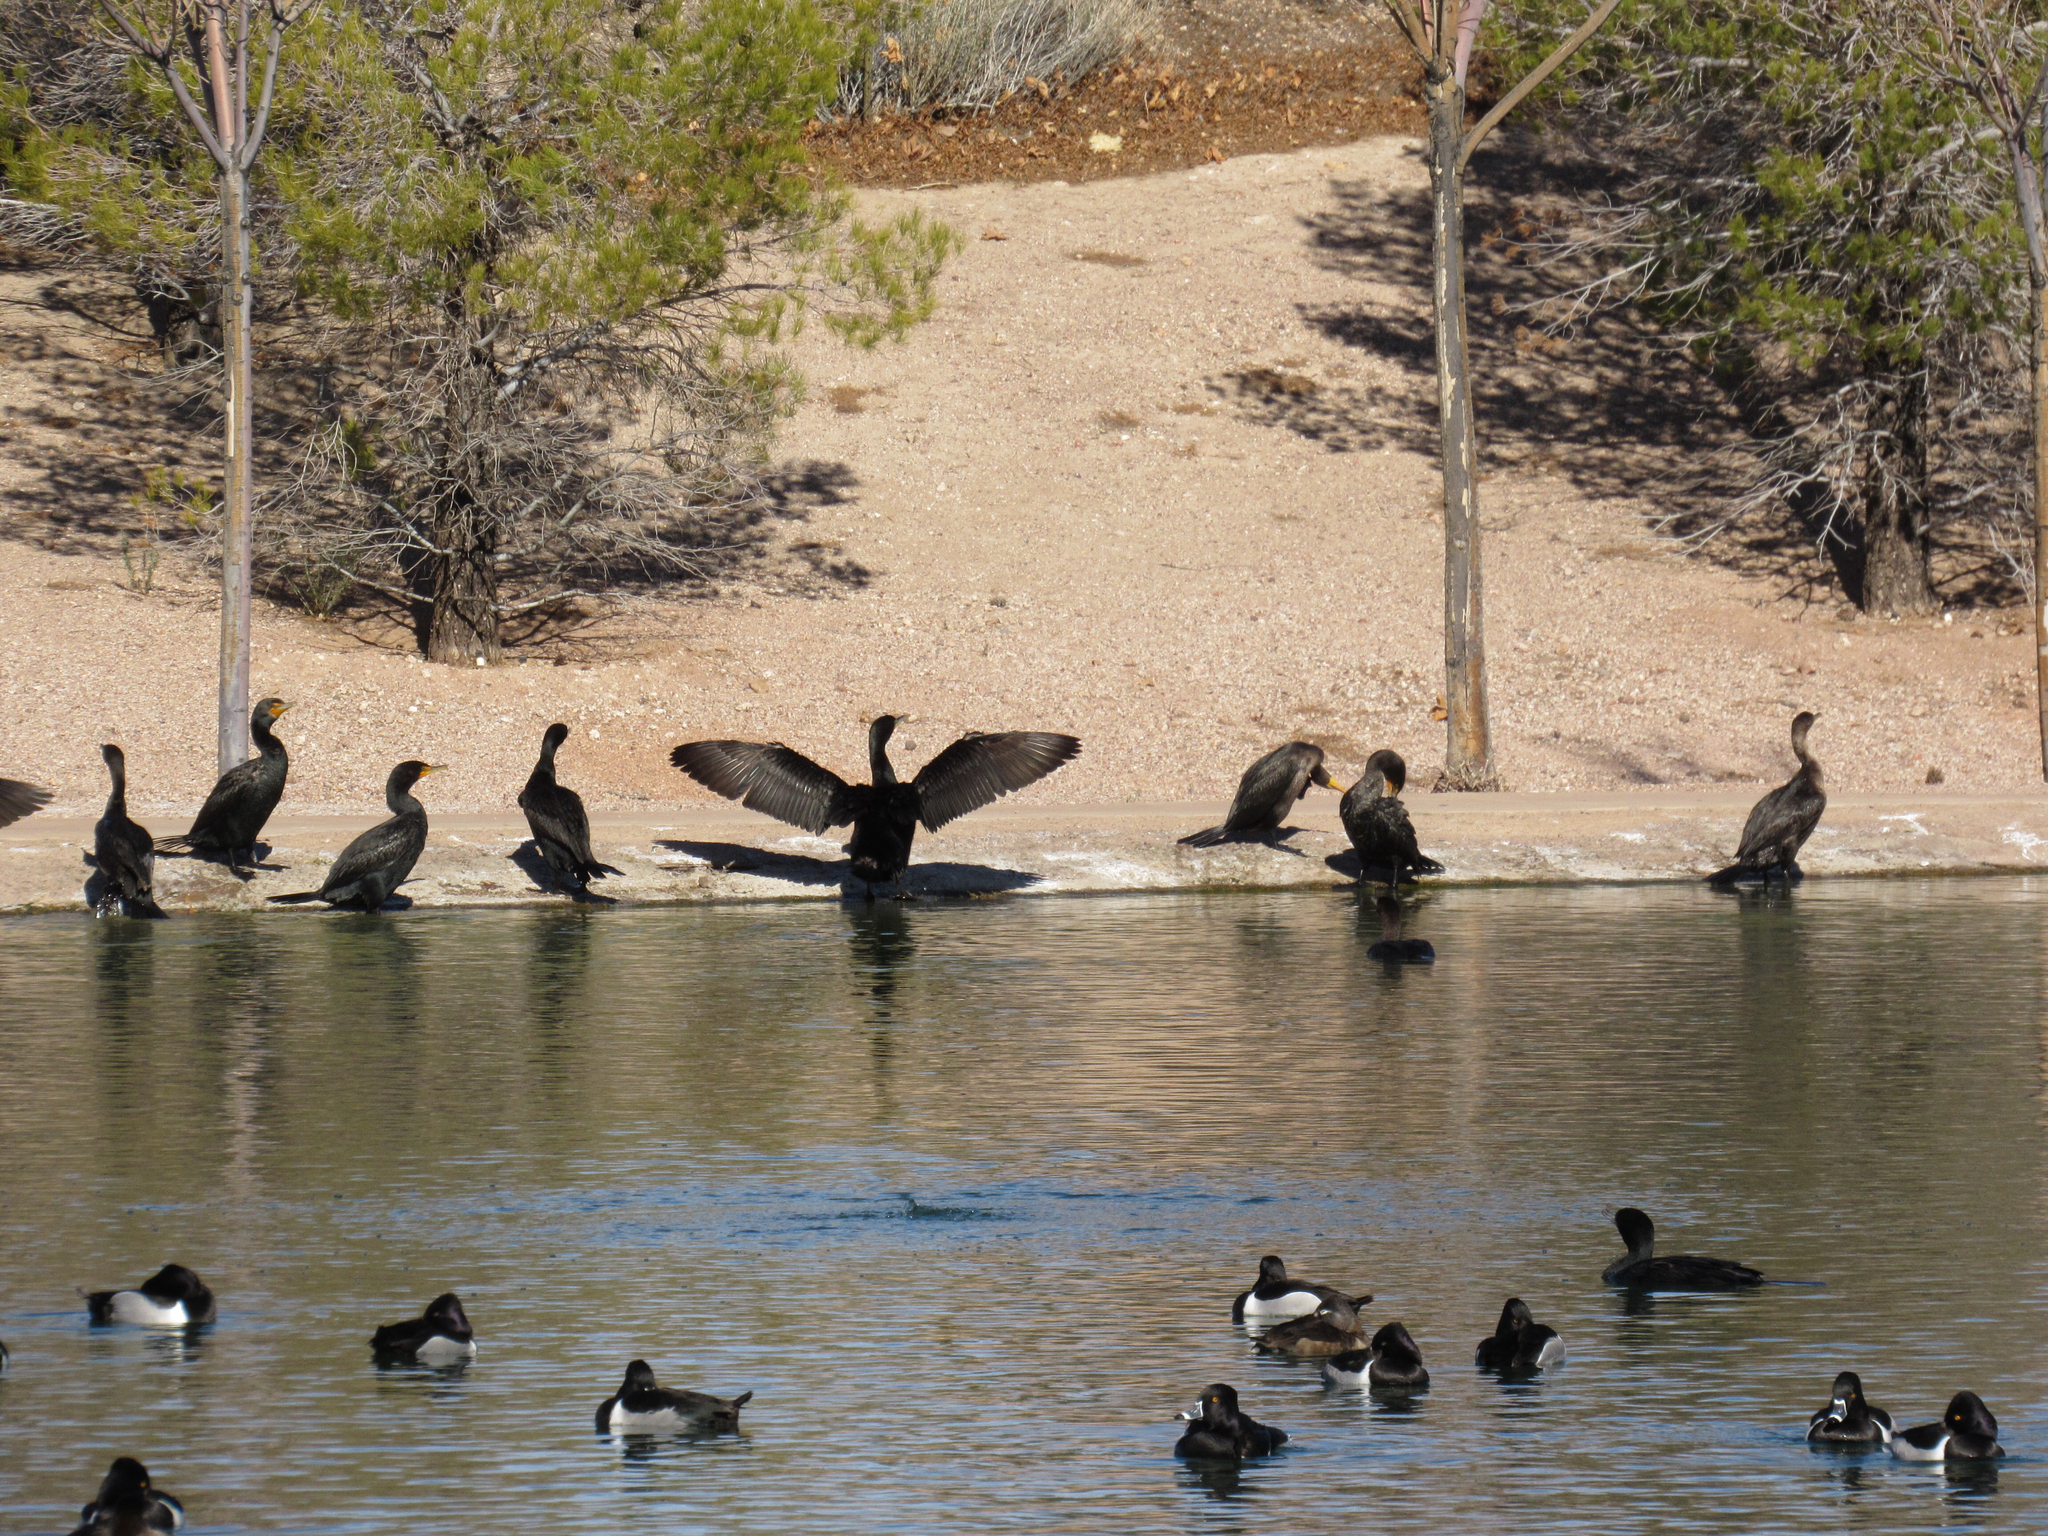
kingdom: Animalia
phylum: Chordata
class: Aves
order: Suliformes
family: Phalacrocoracidae
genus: Phalacrocorax
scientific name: Phalacrocorax auritus
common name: Double-crested cormorant
